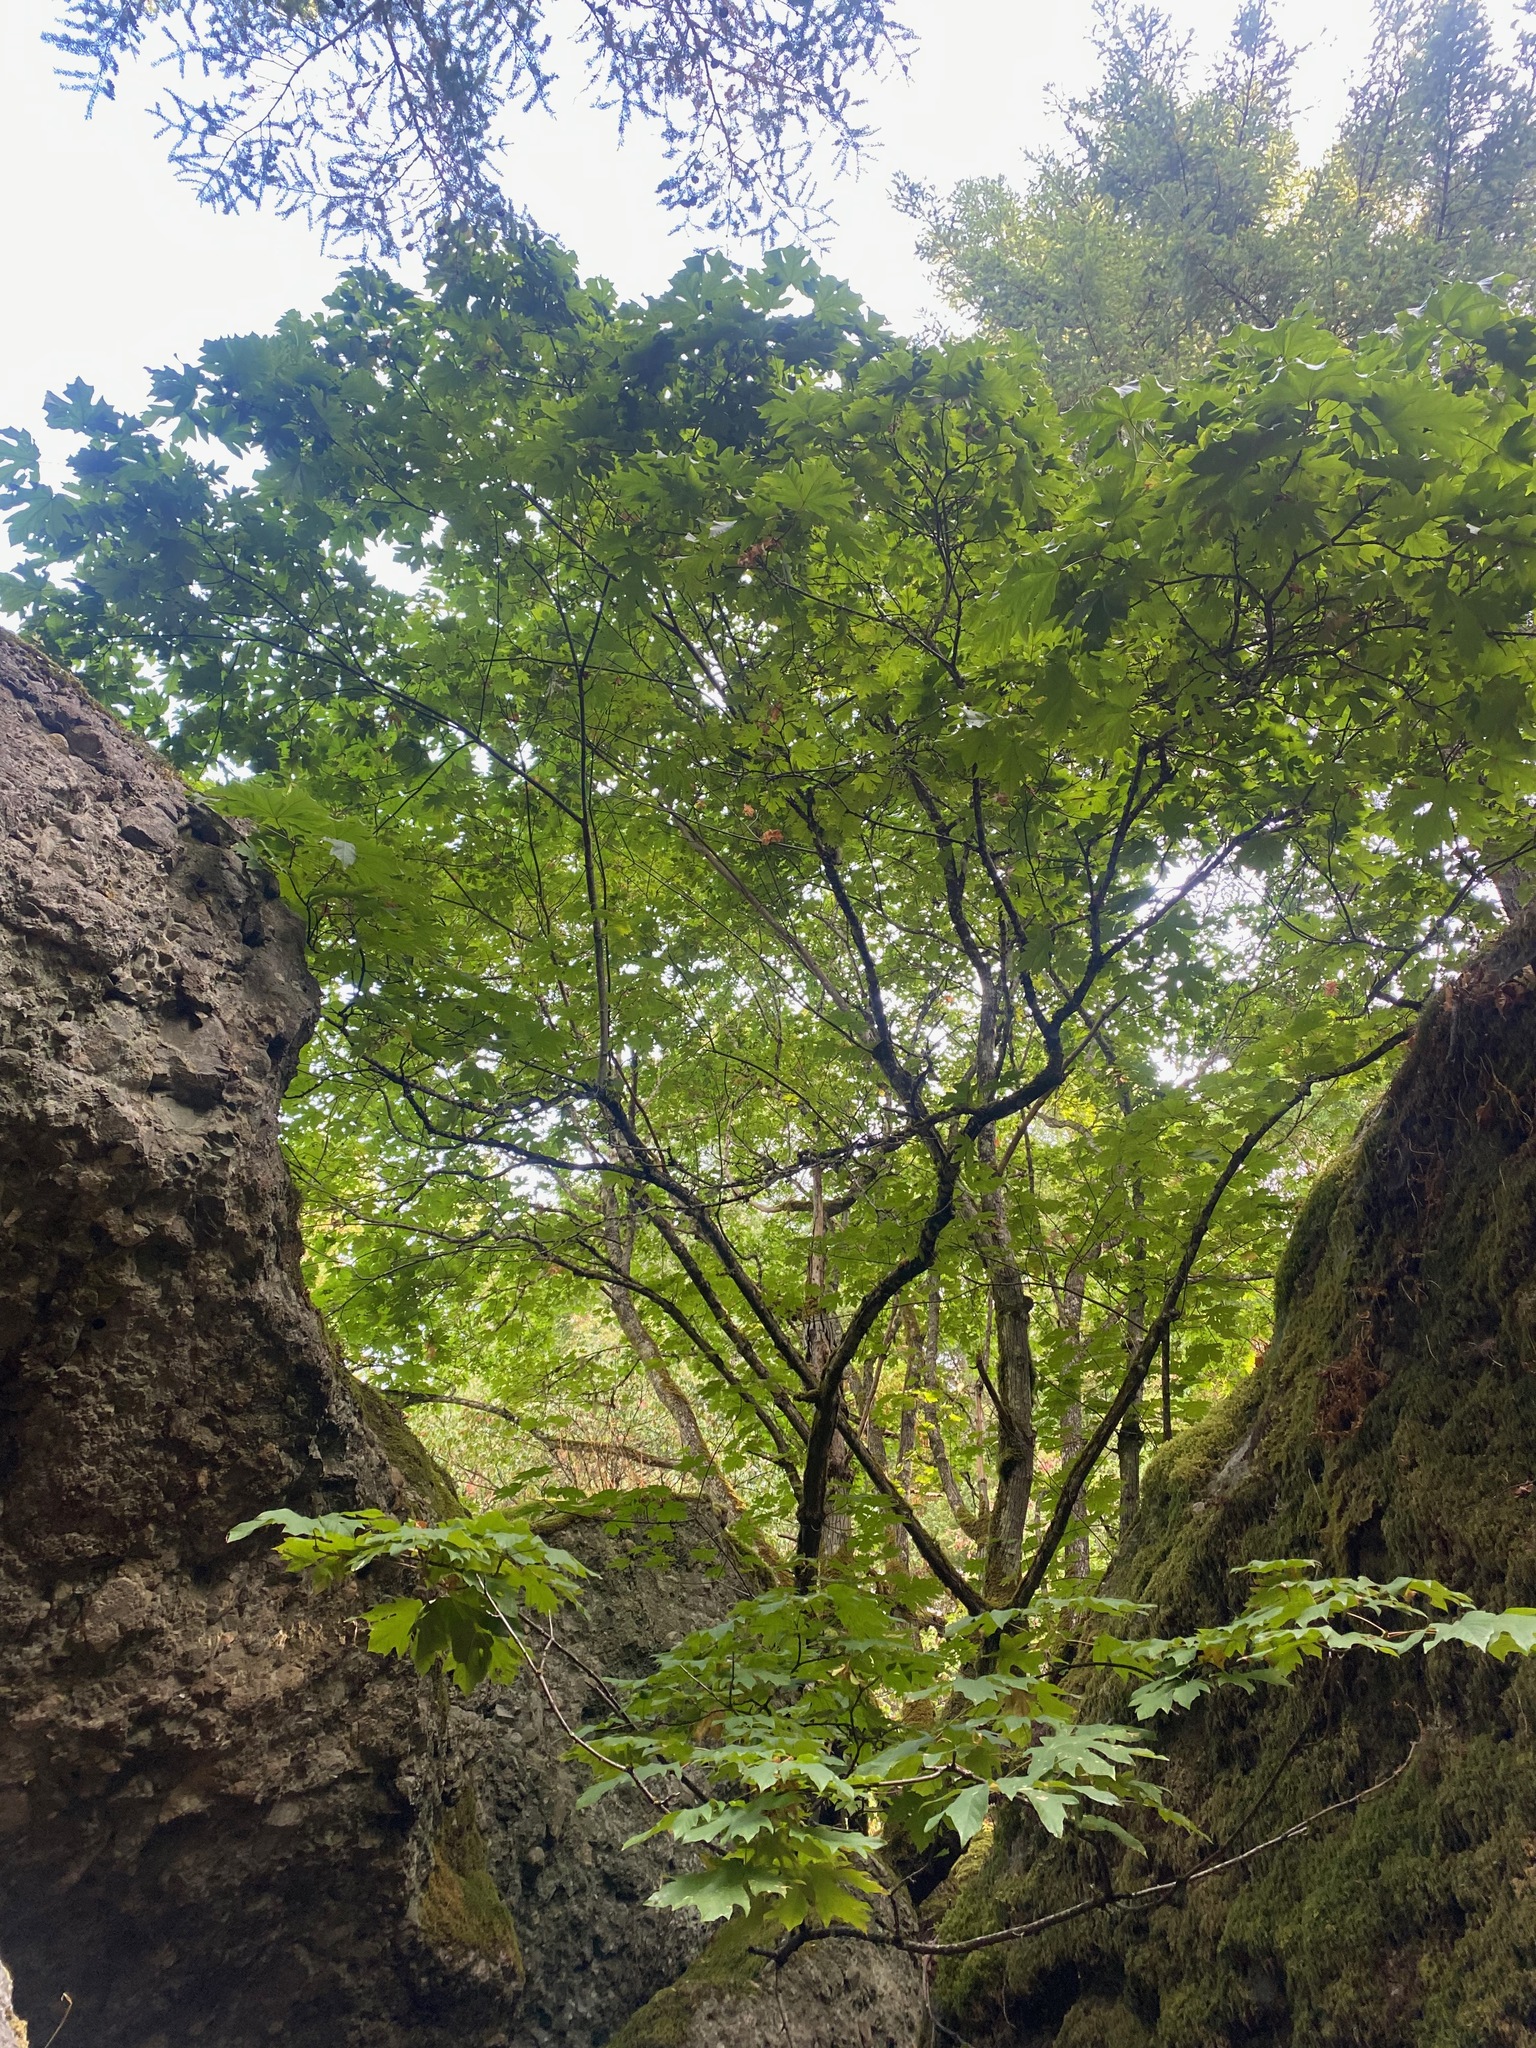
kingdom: Plantae
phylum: Tracheophyta
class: Magnoliopsida
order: Sapindales
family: Sapindaceae
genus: Acer
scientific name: Acer macrophyllum
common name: Oregon maple
